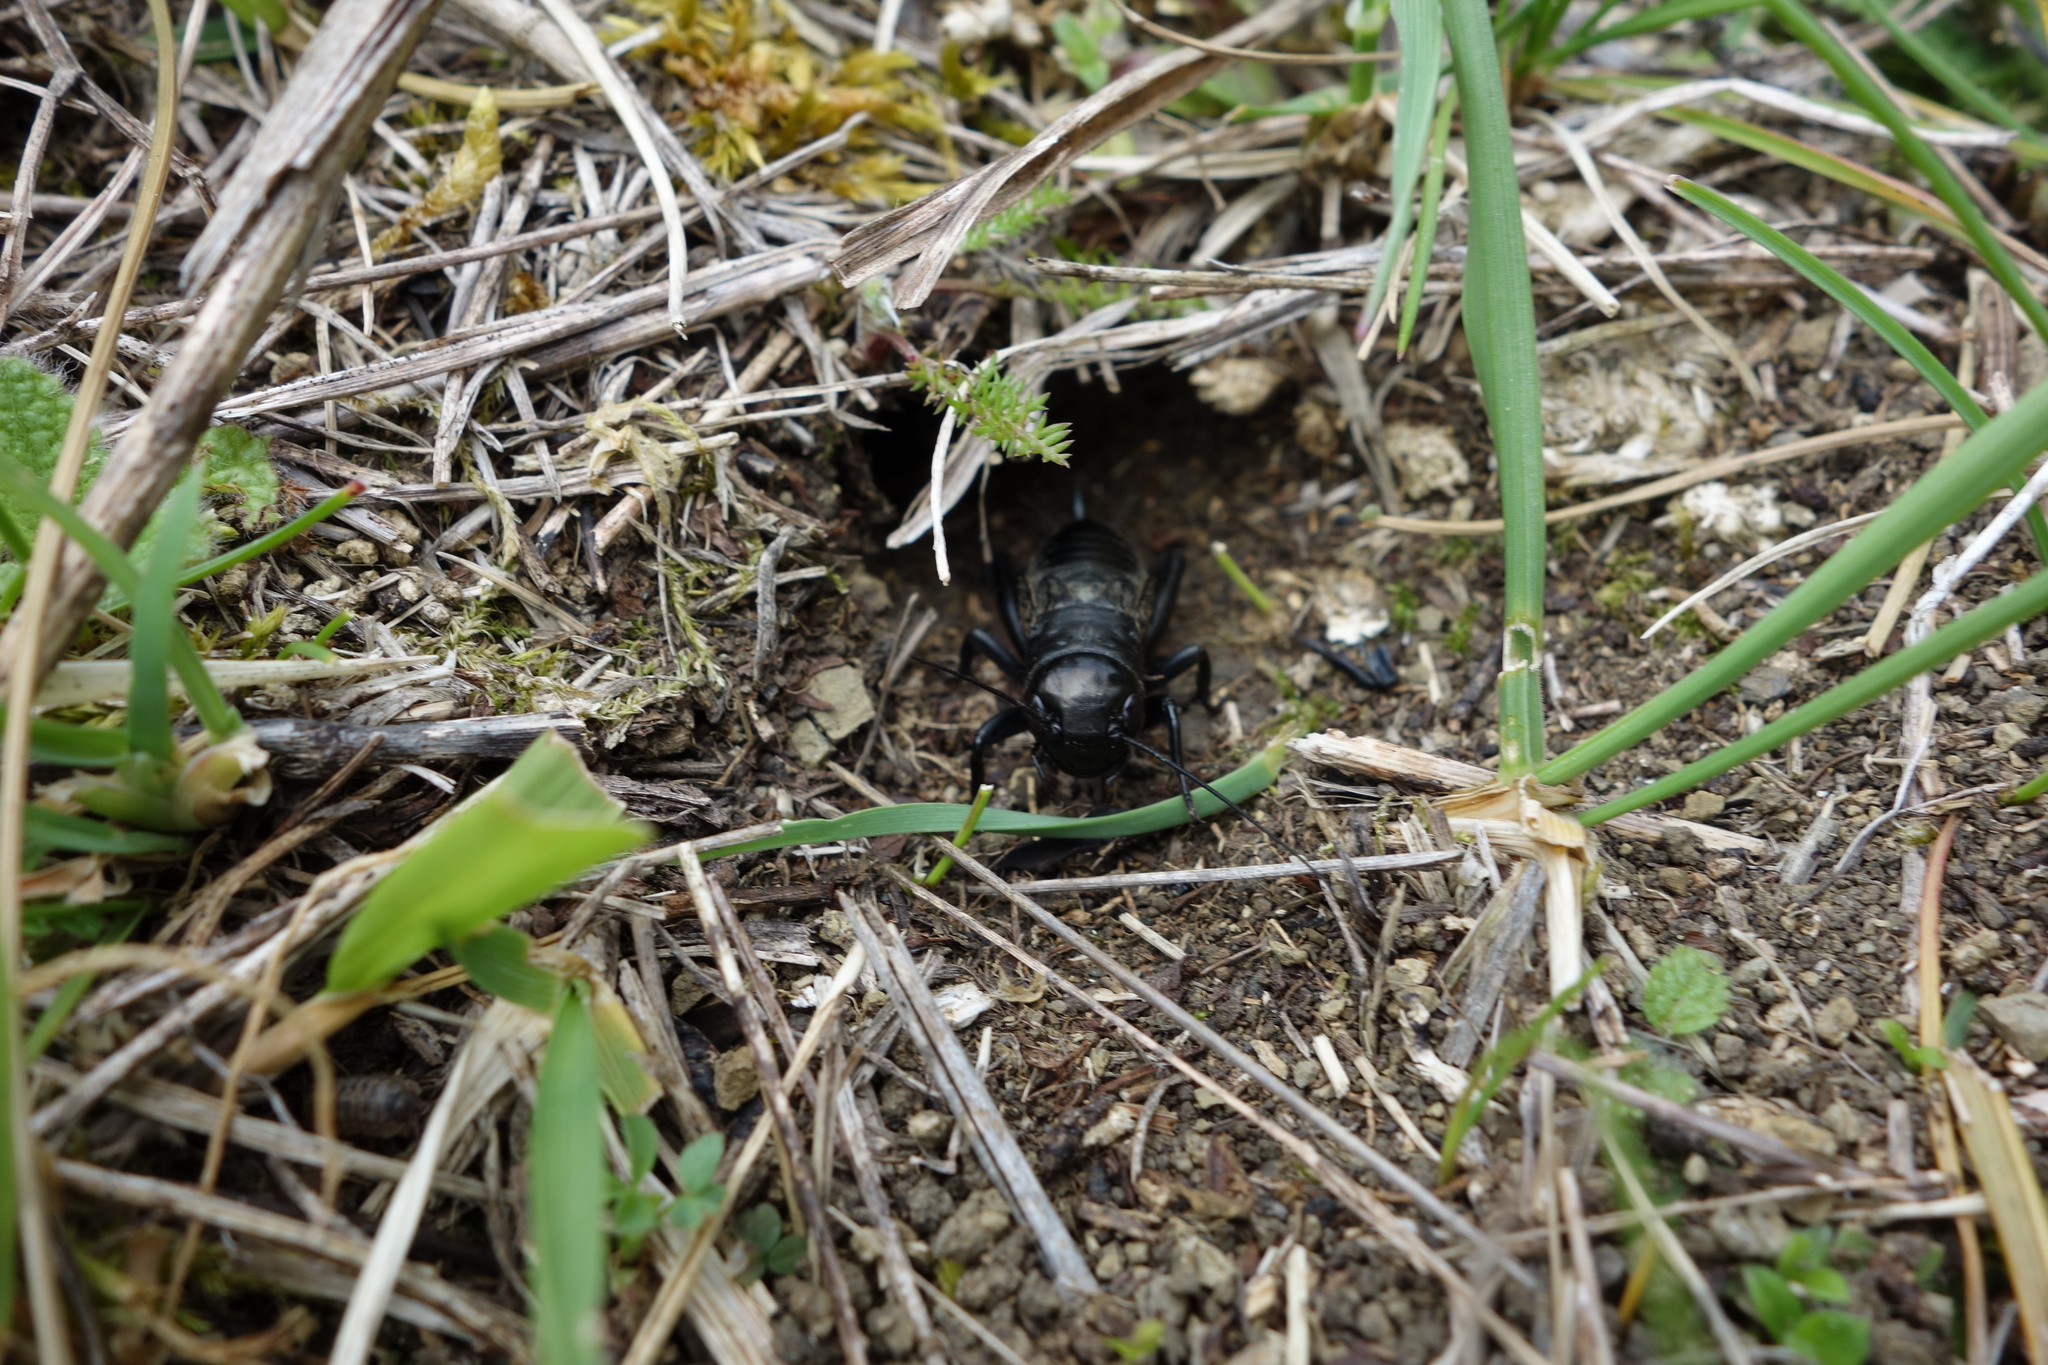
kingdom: Animalia
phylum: Arthropoda
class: Insecta
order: Orthoptera
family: Gryllidae
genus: Gryllus
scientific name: Gryllus campestris
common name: Field cricket
